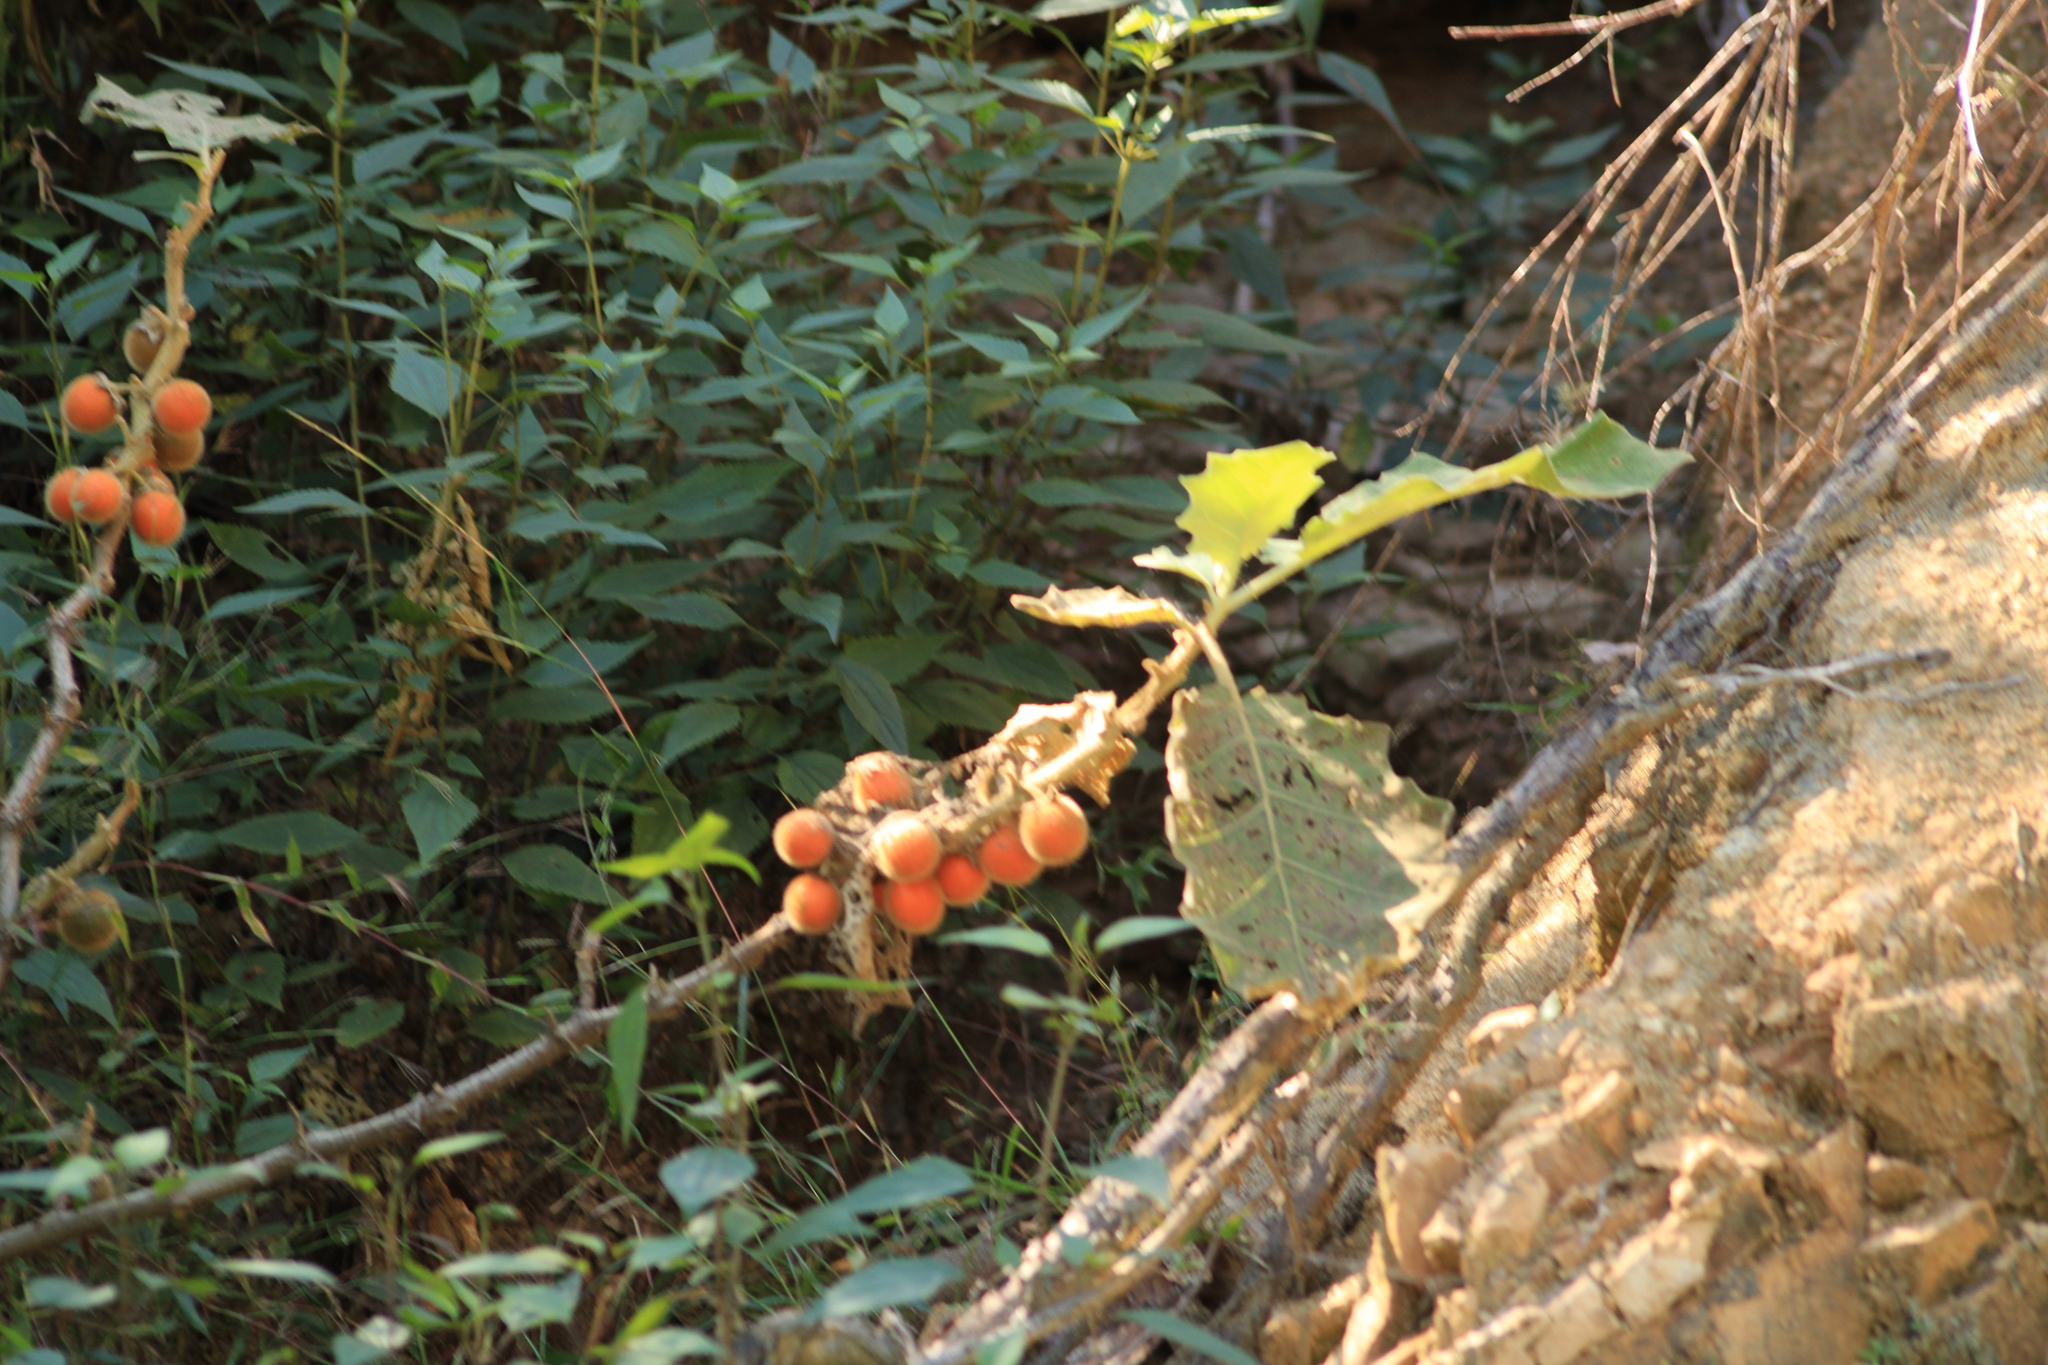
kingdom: Plantae
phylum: Tracheophyta
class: Magnoliopsida
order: Solanales
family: Solanaceae
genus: Solanum
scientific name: Solanum candidum
